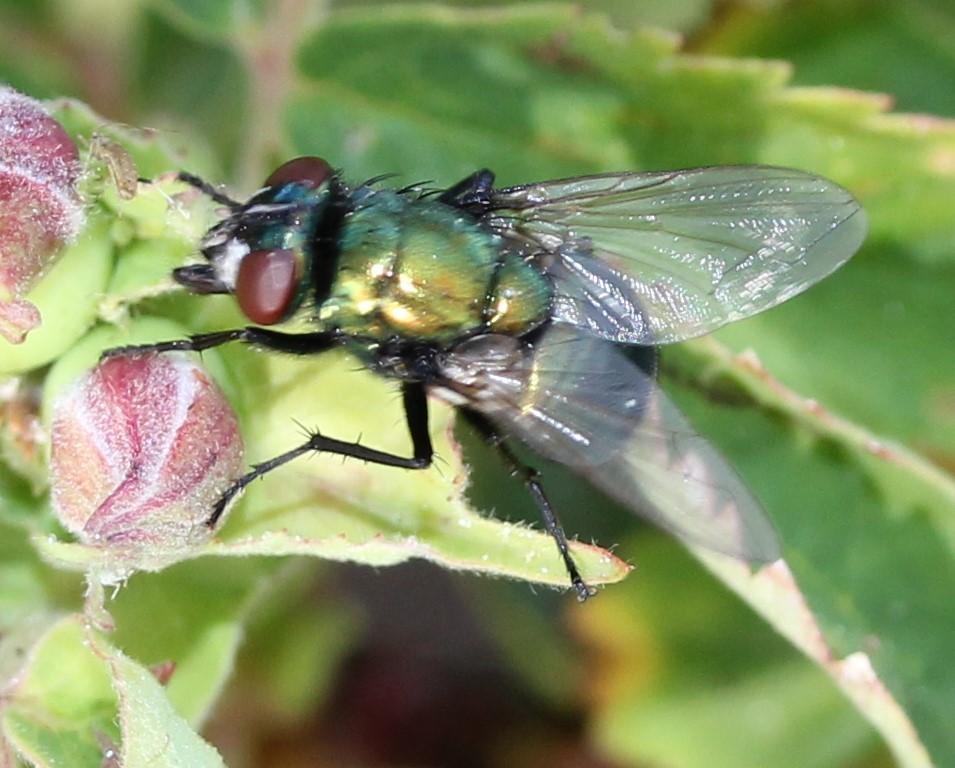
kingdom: Animalia
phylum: Arthropoda
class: Insecta
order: Diptera
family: Muscidae
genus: Neomyia
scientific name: Neomyia cornicina
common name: House fly
